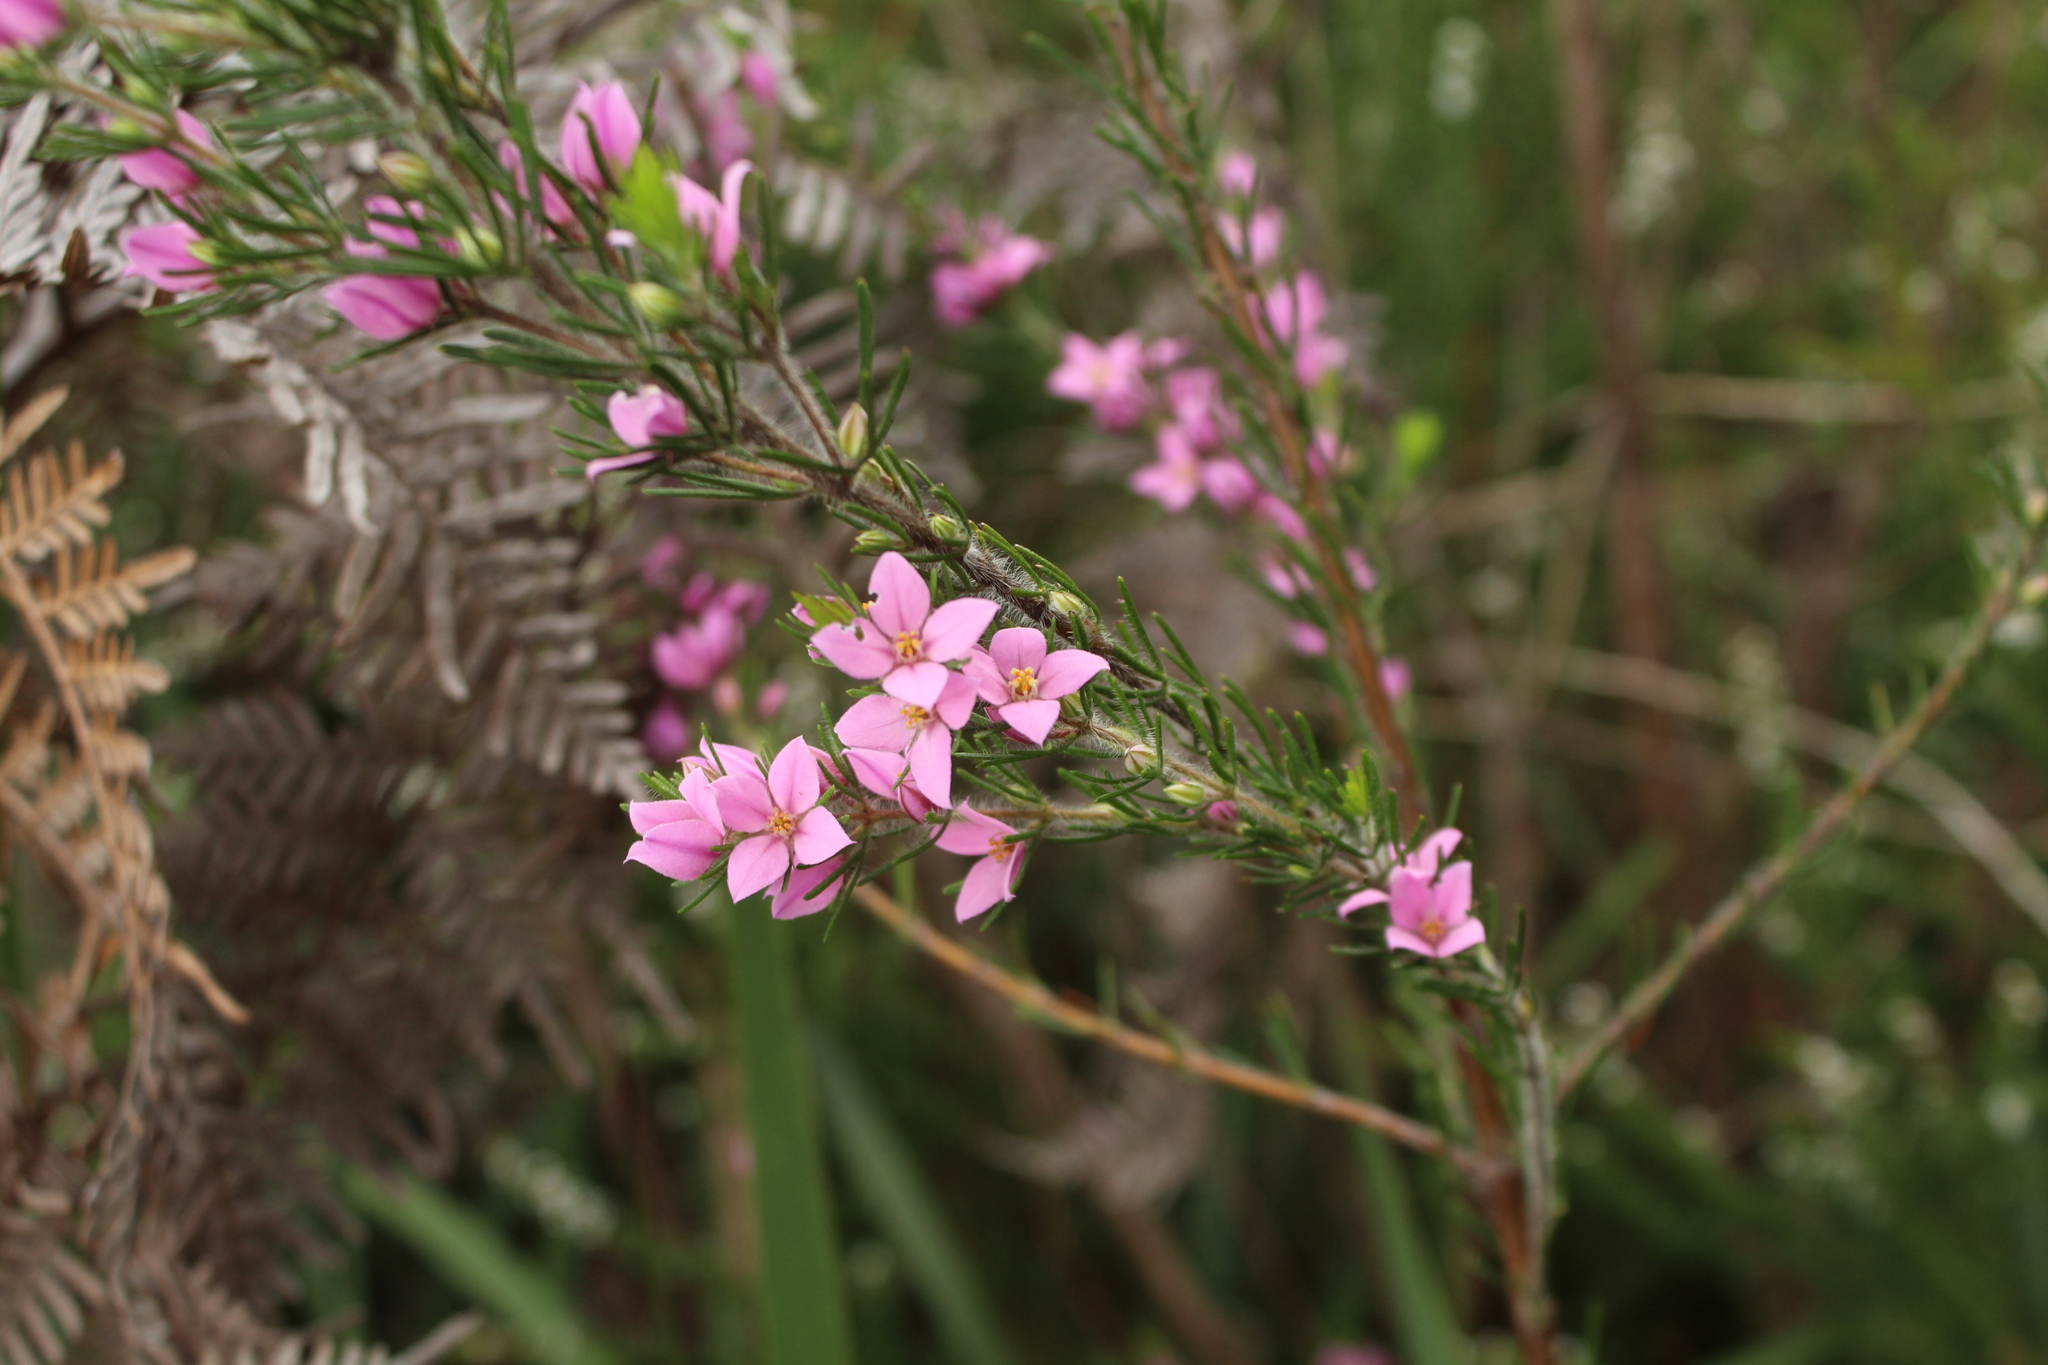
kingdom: Plantae
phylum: Tracheophyta
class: Magnoliopsida
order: Sapindales
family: Rutaceae
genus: Boronia
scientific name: Boronia stricta
